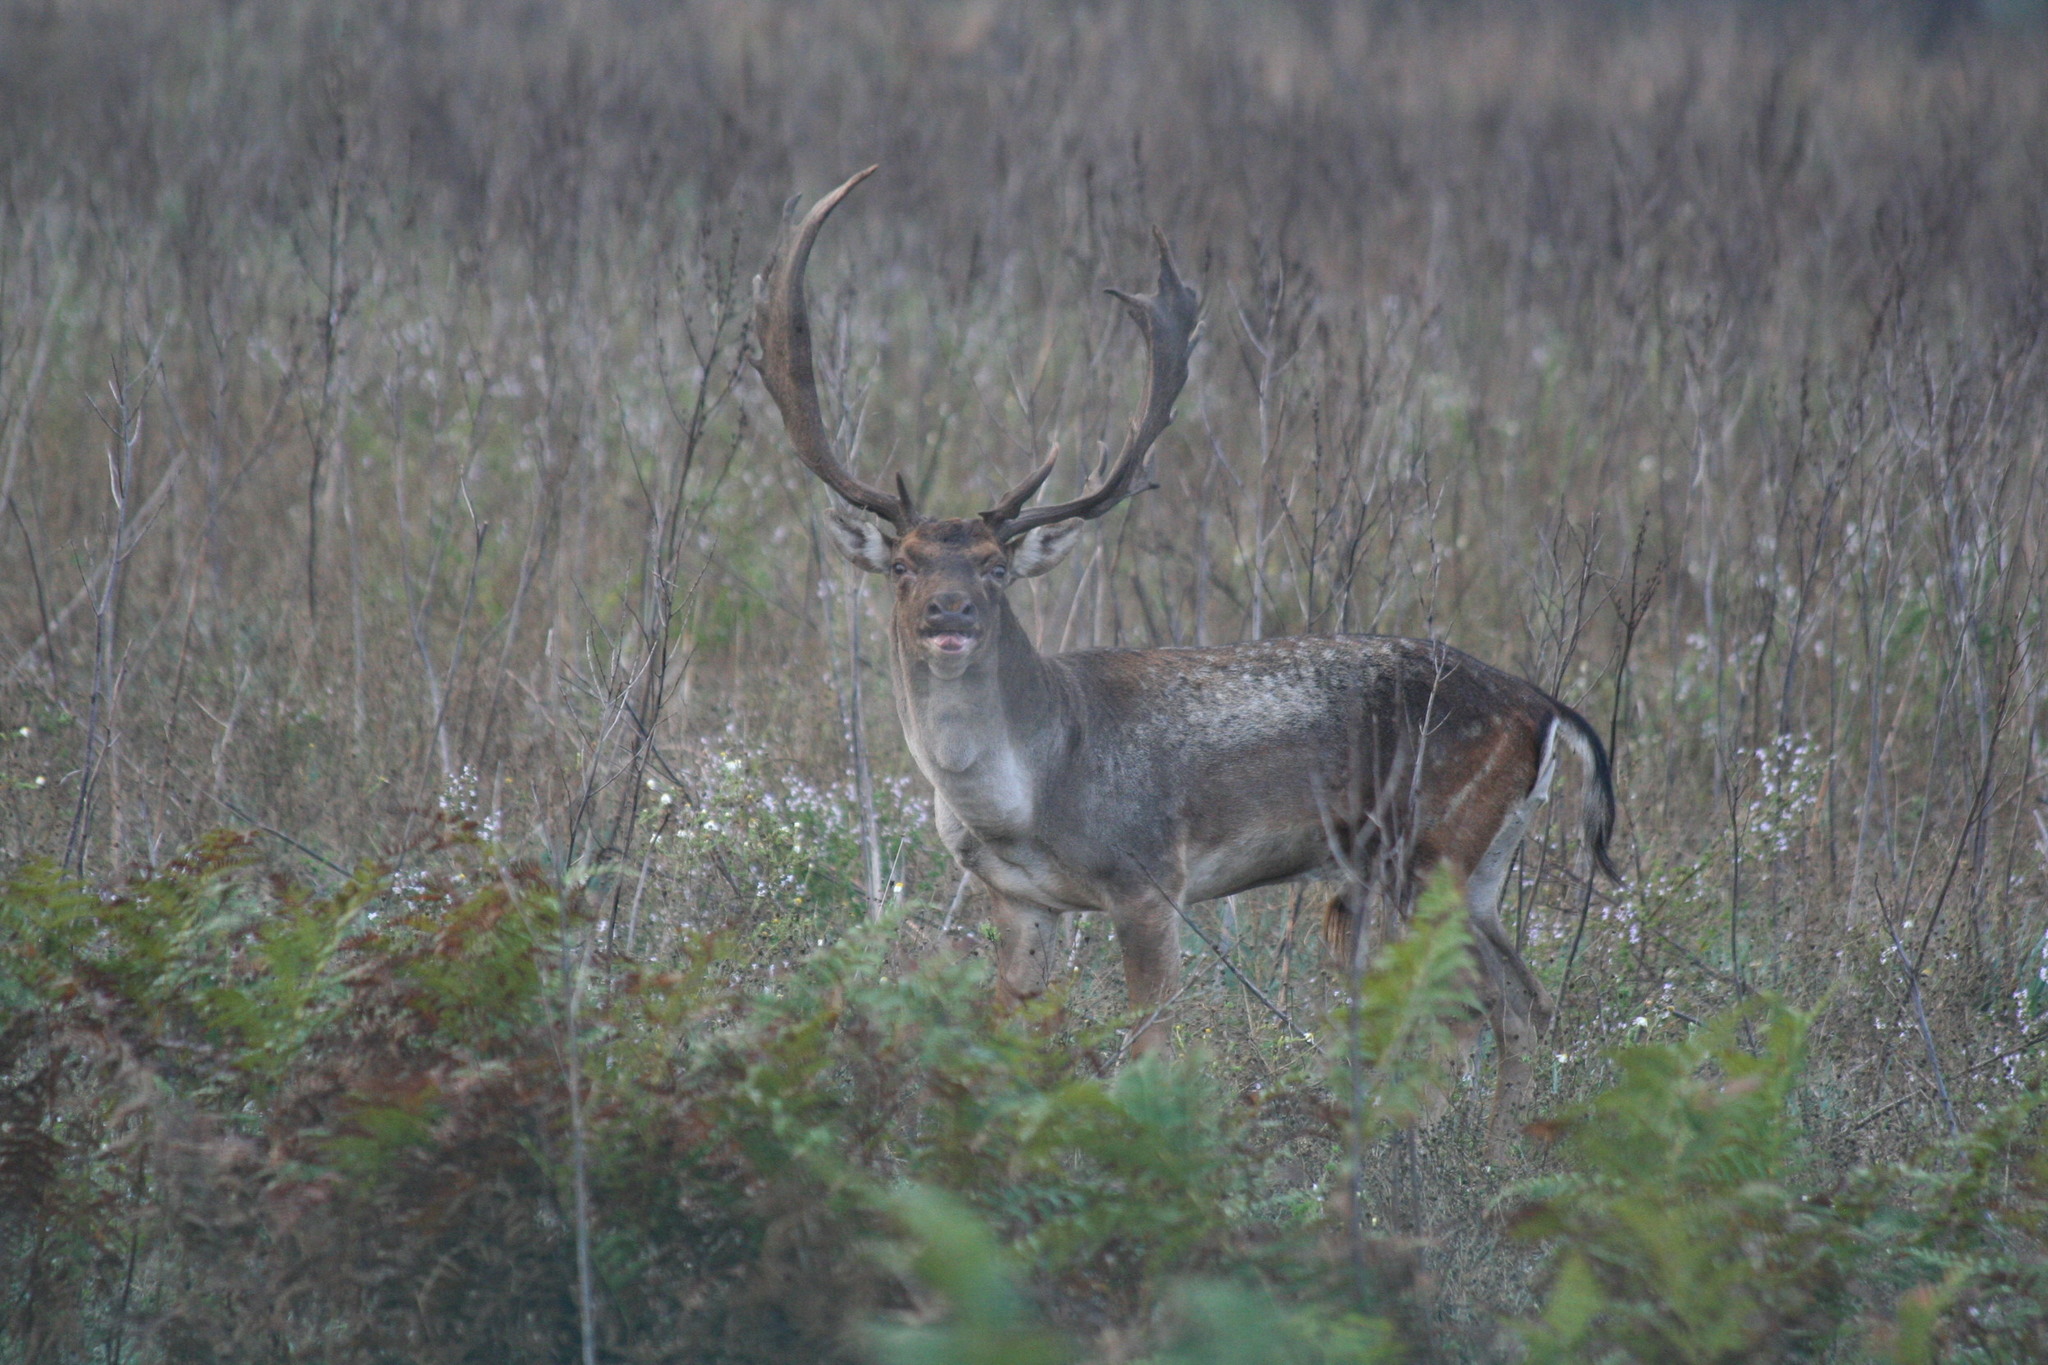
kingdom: Animalia
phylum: Chordata
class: Mammalia
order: Artiodactyla
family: Cervidae
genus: Dama
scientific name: Dama dama
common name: Fallow deer
